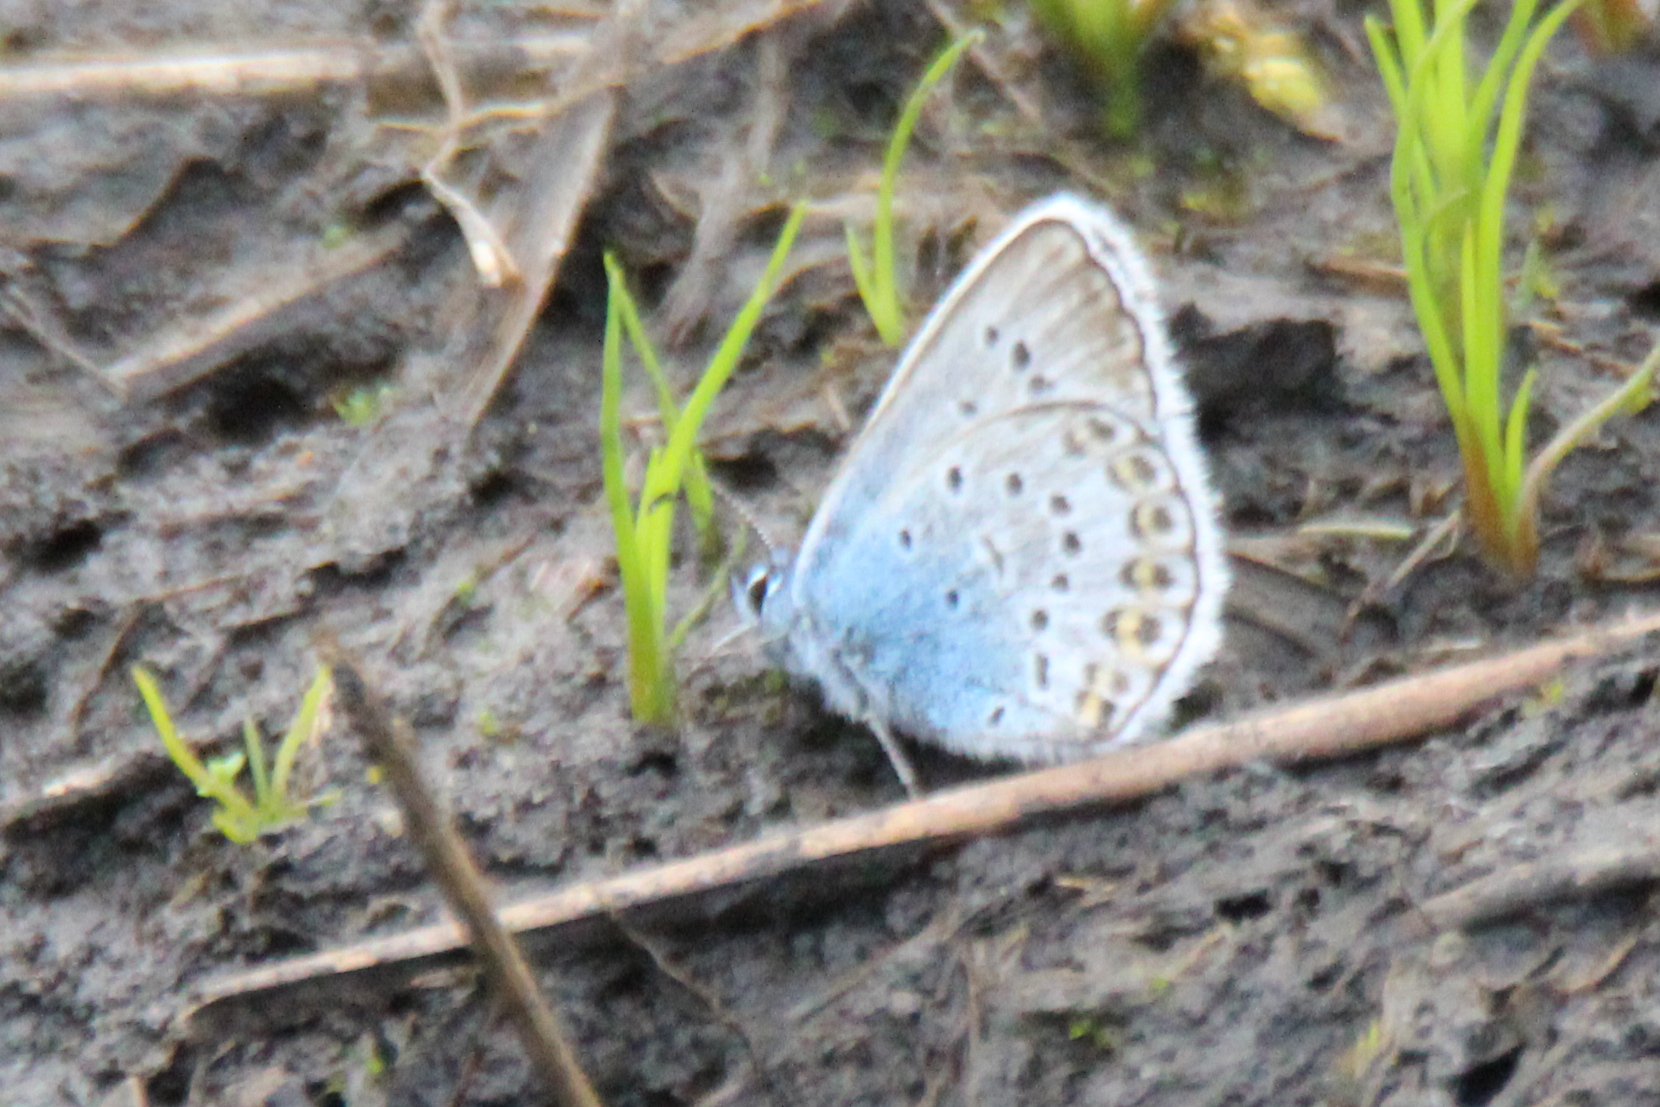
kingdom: Animalia
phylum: Arthropoda
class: Insecta
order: Lepidoptera
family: Lycaenidae
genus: Plebejus
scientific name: Plebejus argus
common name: Silver-studded blue
